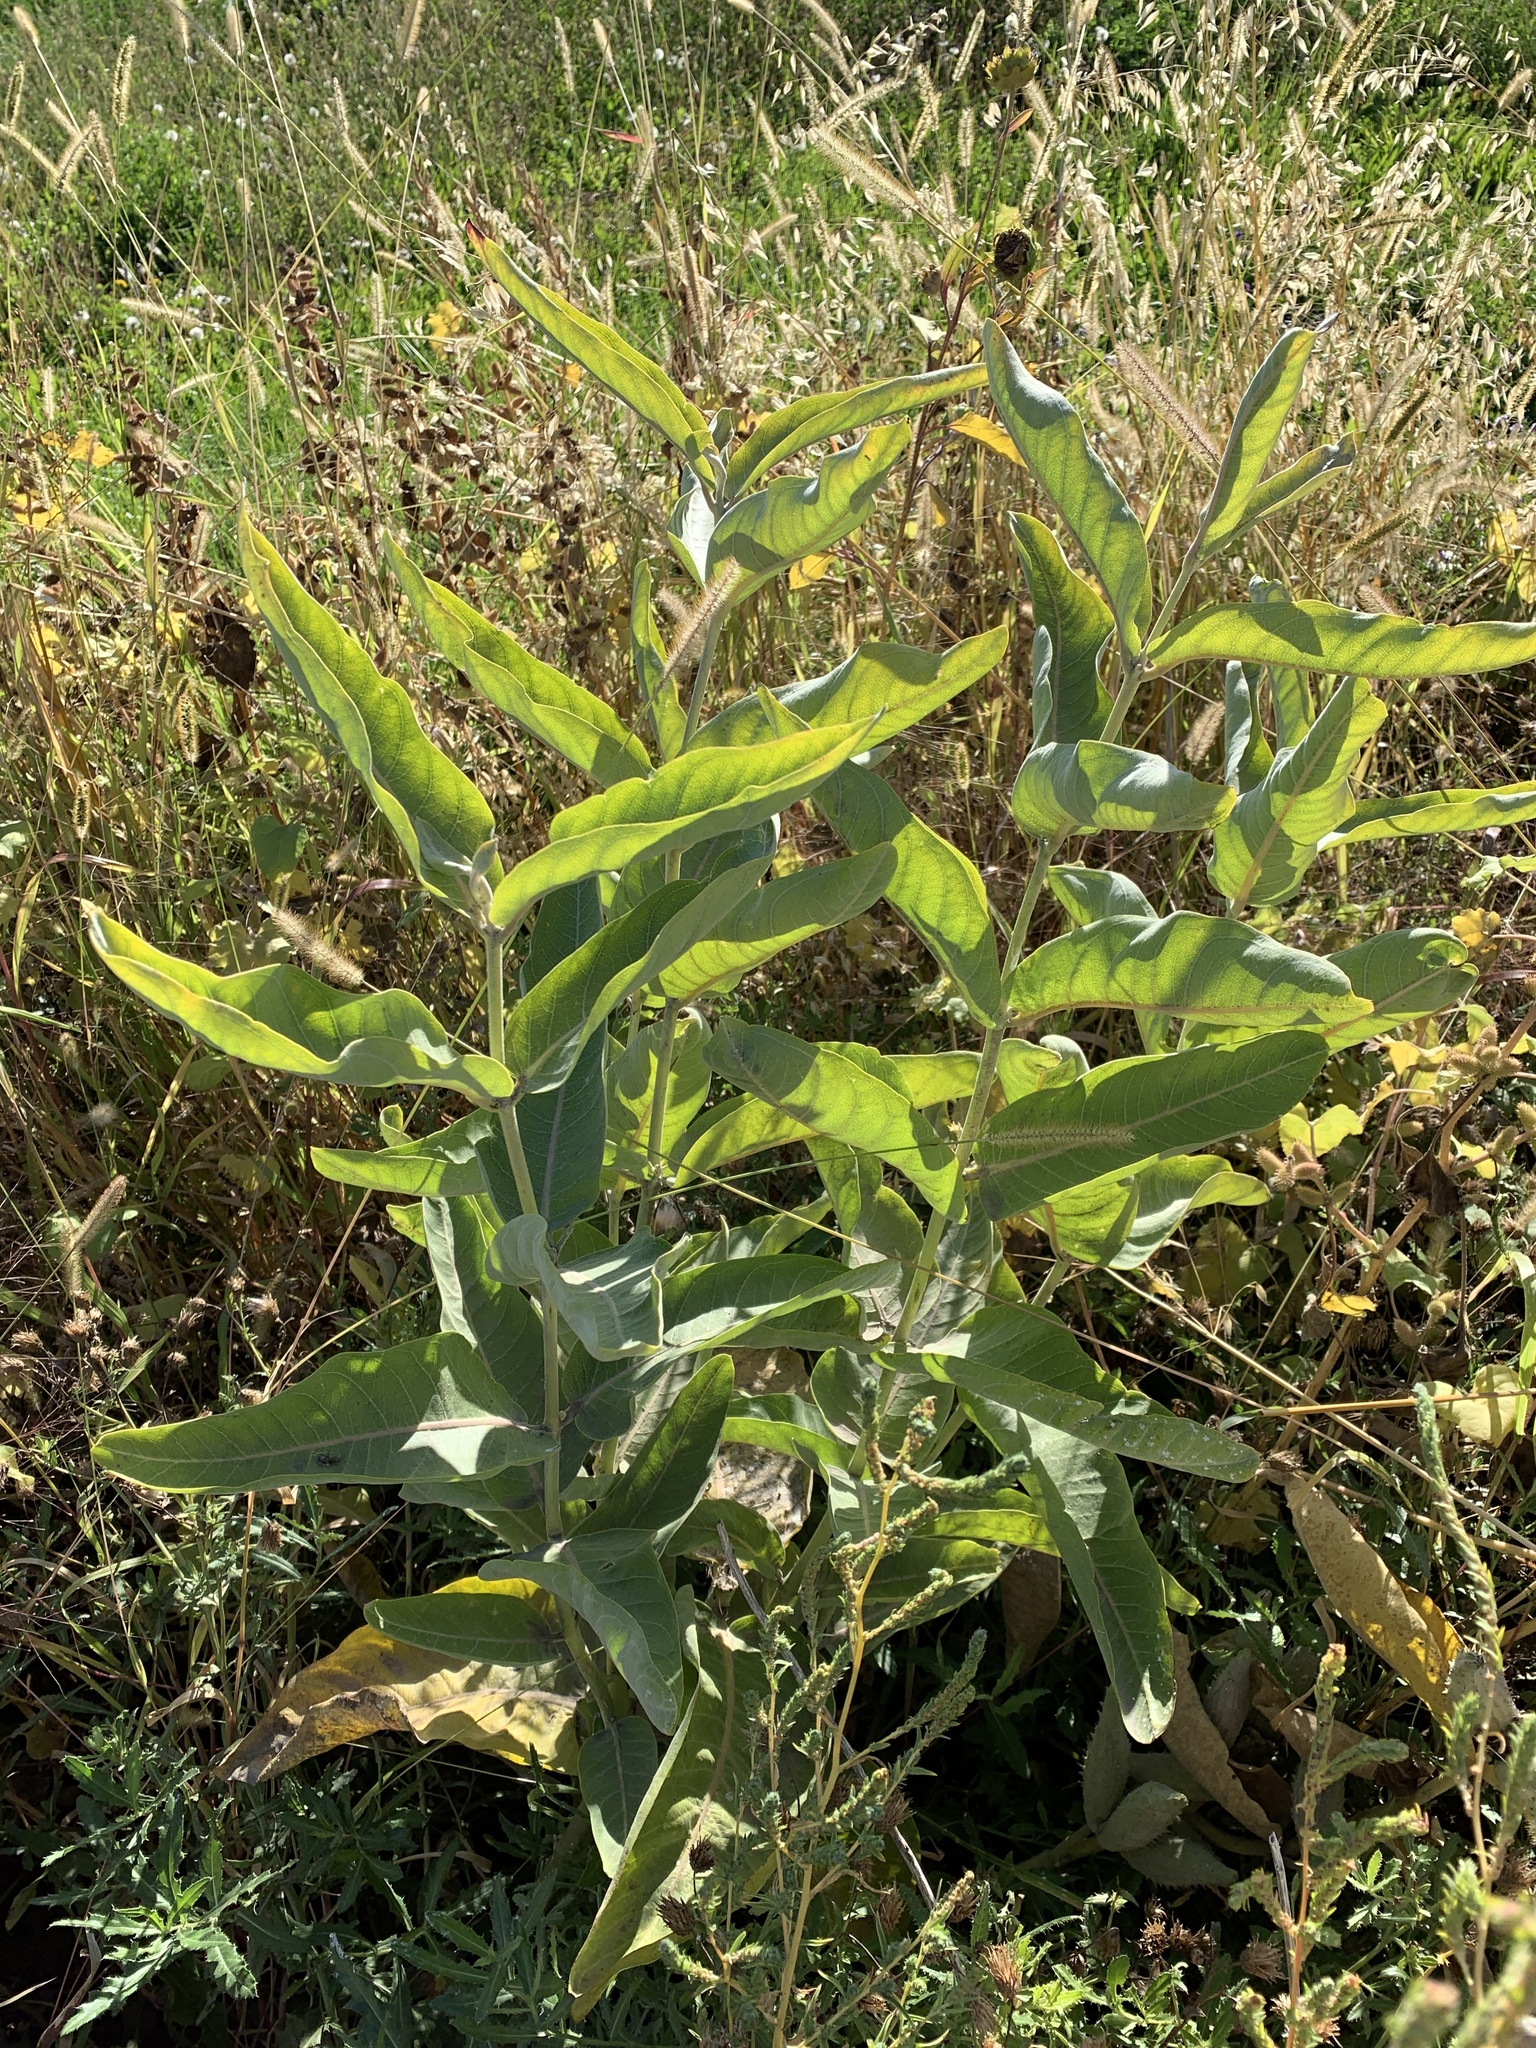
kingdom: Plantae
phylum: Tracheophyta
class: Magnoliopsida
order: Gentianales
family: Apocynaceae
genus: Asclepias
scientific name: Asclepias speciosa
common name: Showy milkweed
